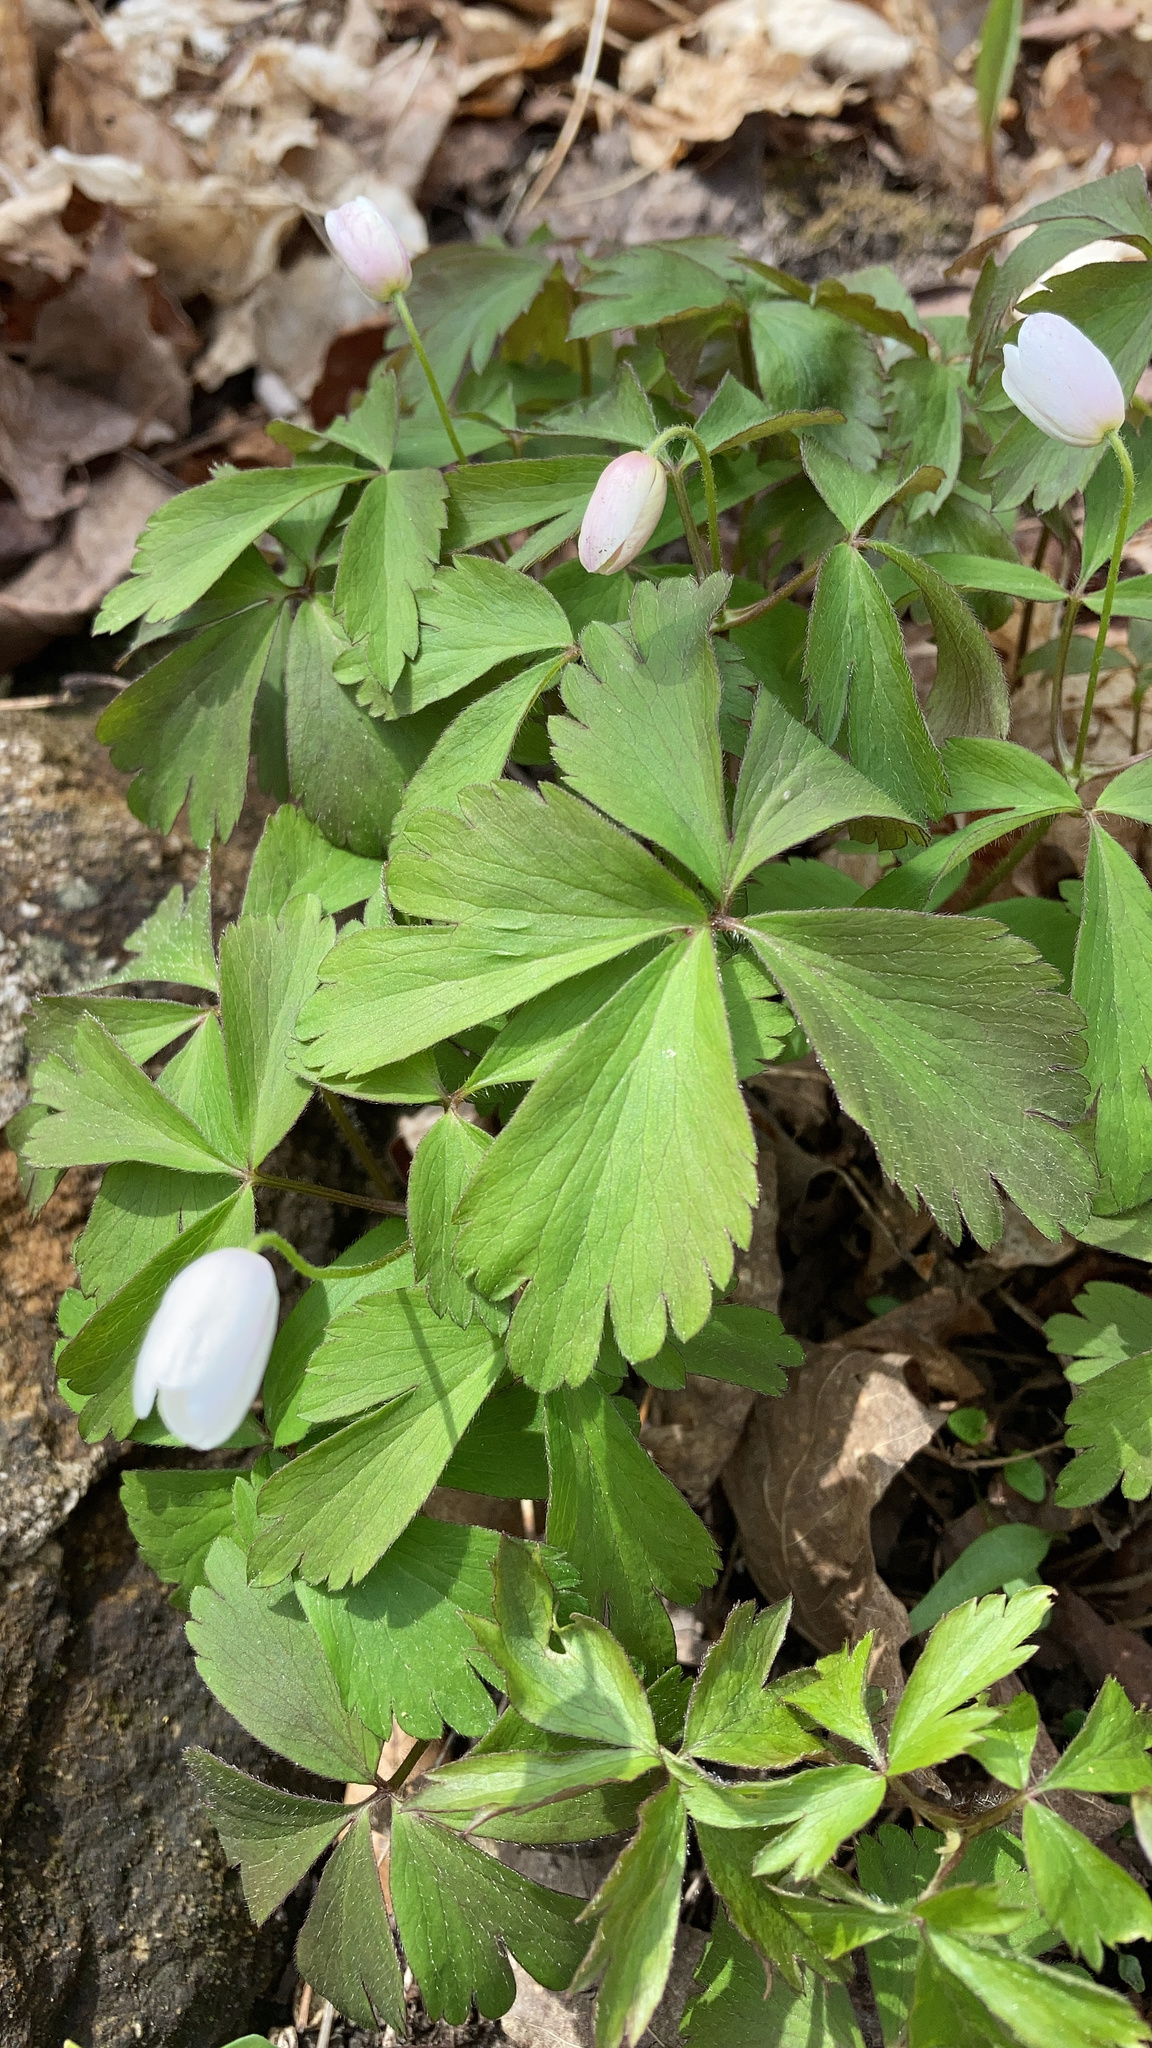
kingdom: Plantae
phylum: Tracheophyta
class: Magnoliopsida
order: Ranunculales
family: Ranunculaceae
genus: Anemone
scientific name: Anemone quinquefolia
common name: Wood anemone
